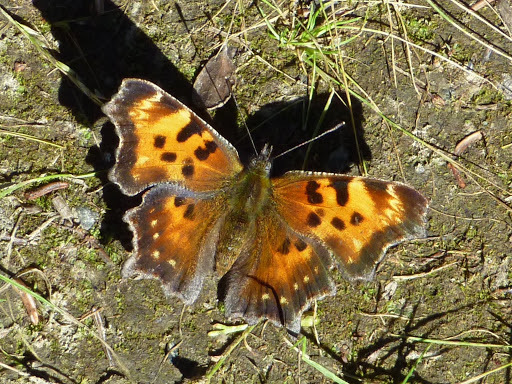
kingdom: Animalia
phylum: Arthropoda
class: Insecta
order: Lepidoptera
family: Nymphalidae
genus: Polygonia
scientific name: Polygonia faunus
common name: Green comma
